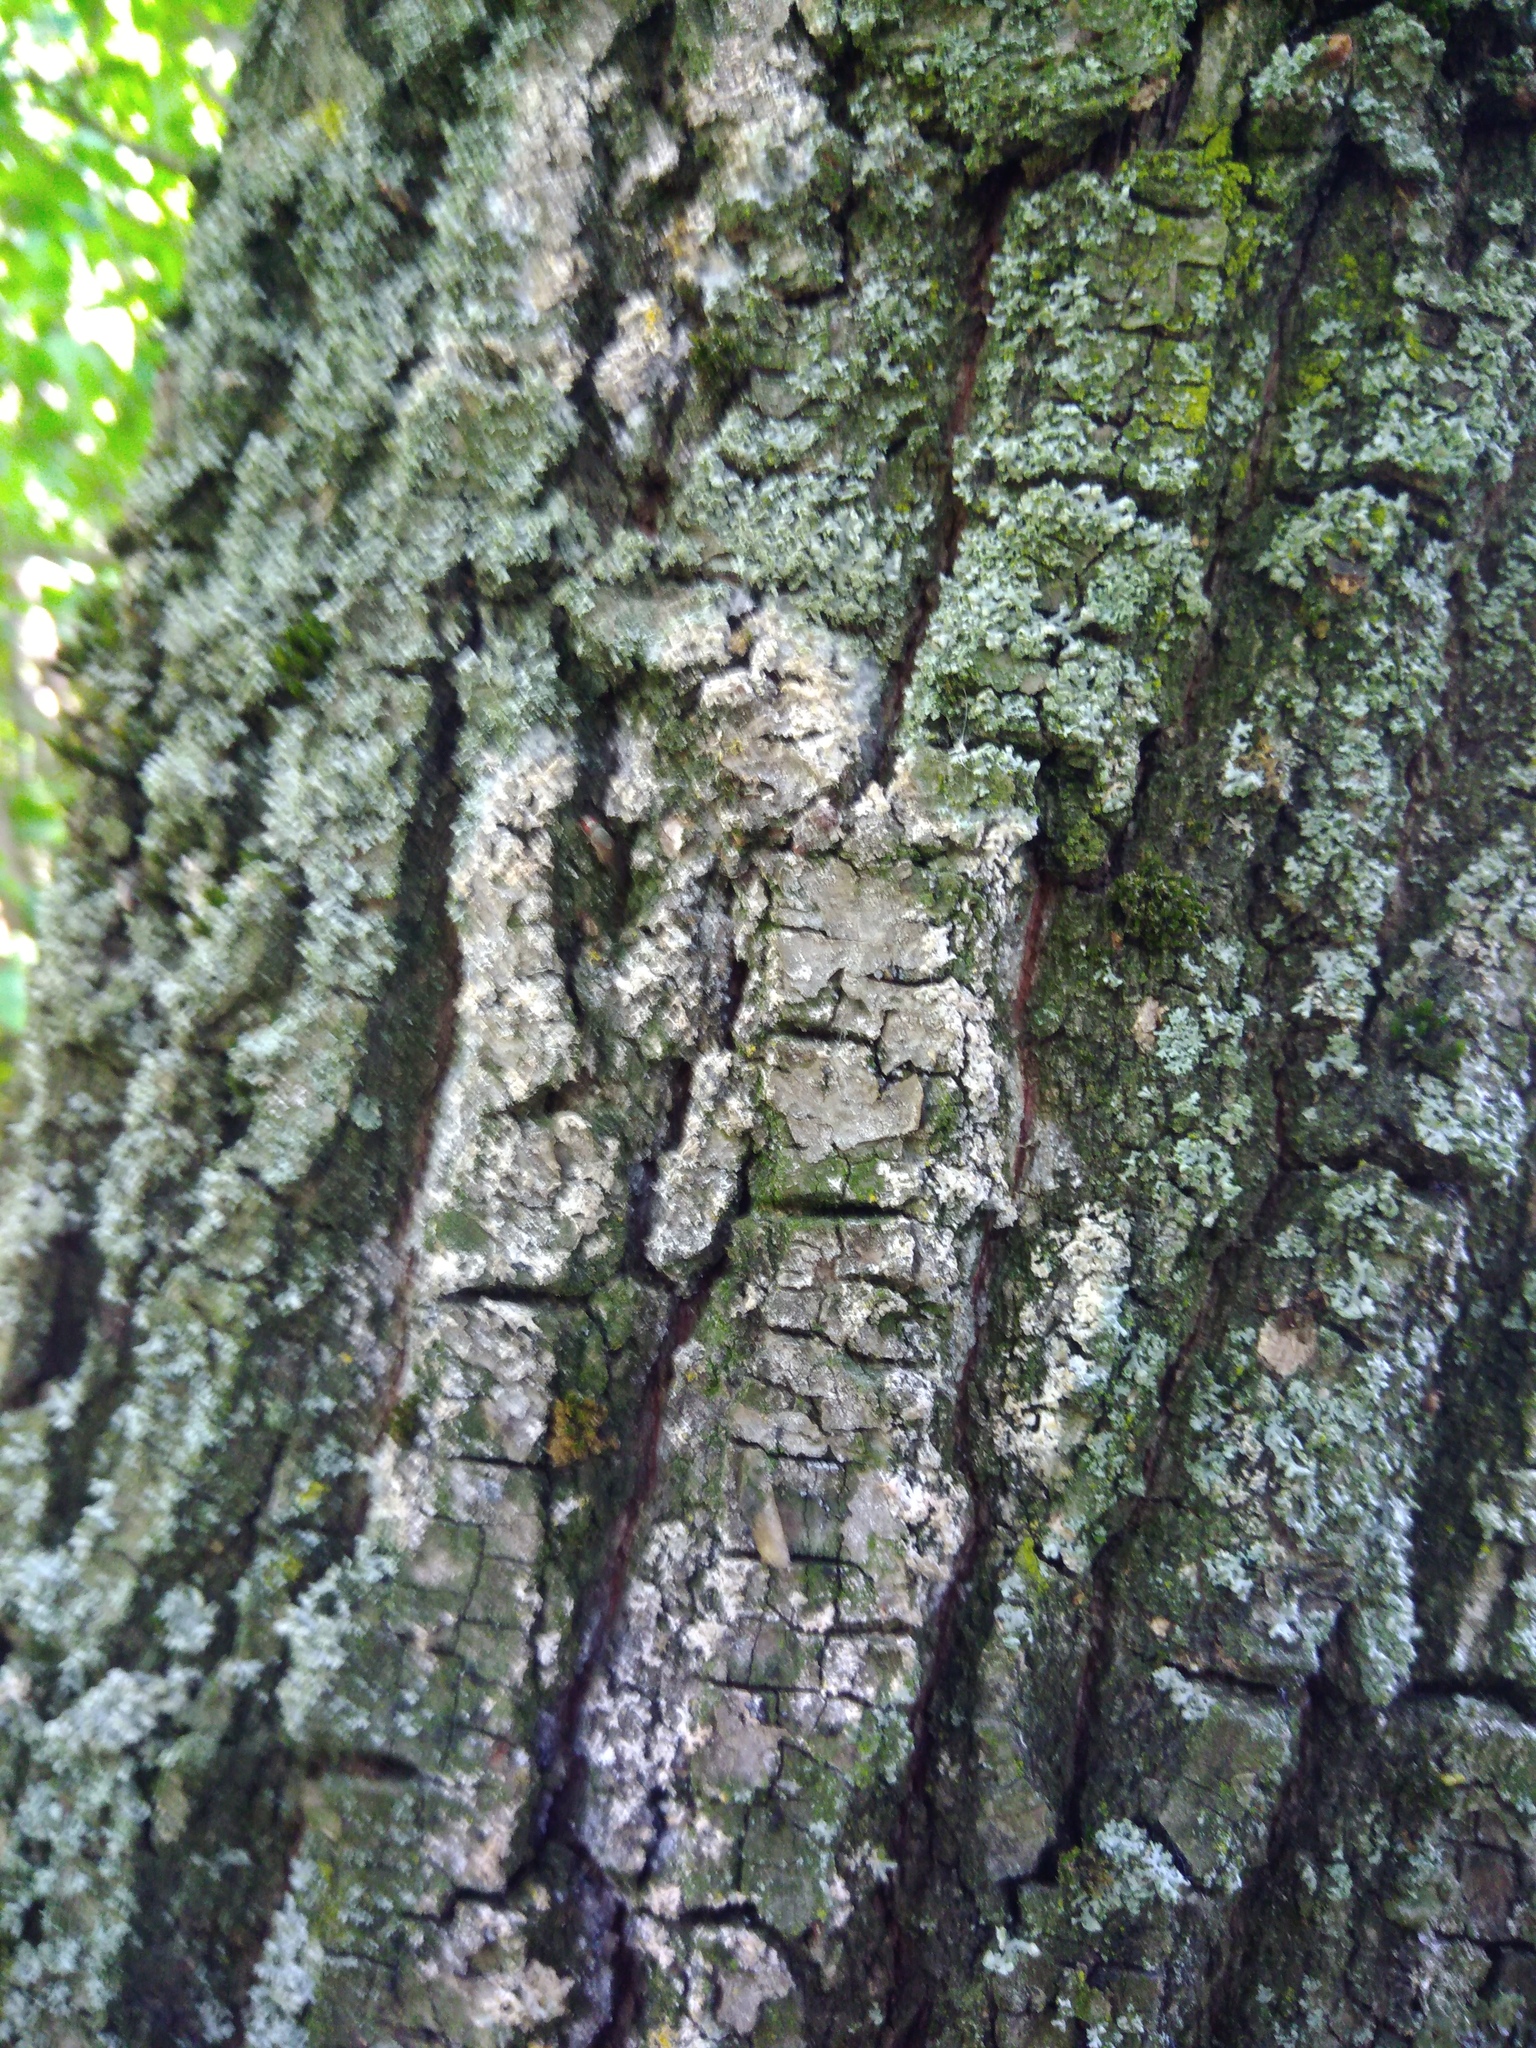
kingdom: Fungi
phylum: Basidiomycota
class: Agaricomycetes
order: Atheliales
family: Atheliaceae
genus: Athelia
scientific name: Athelia arachnoidea
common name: Candelabra duster
